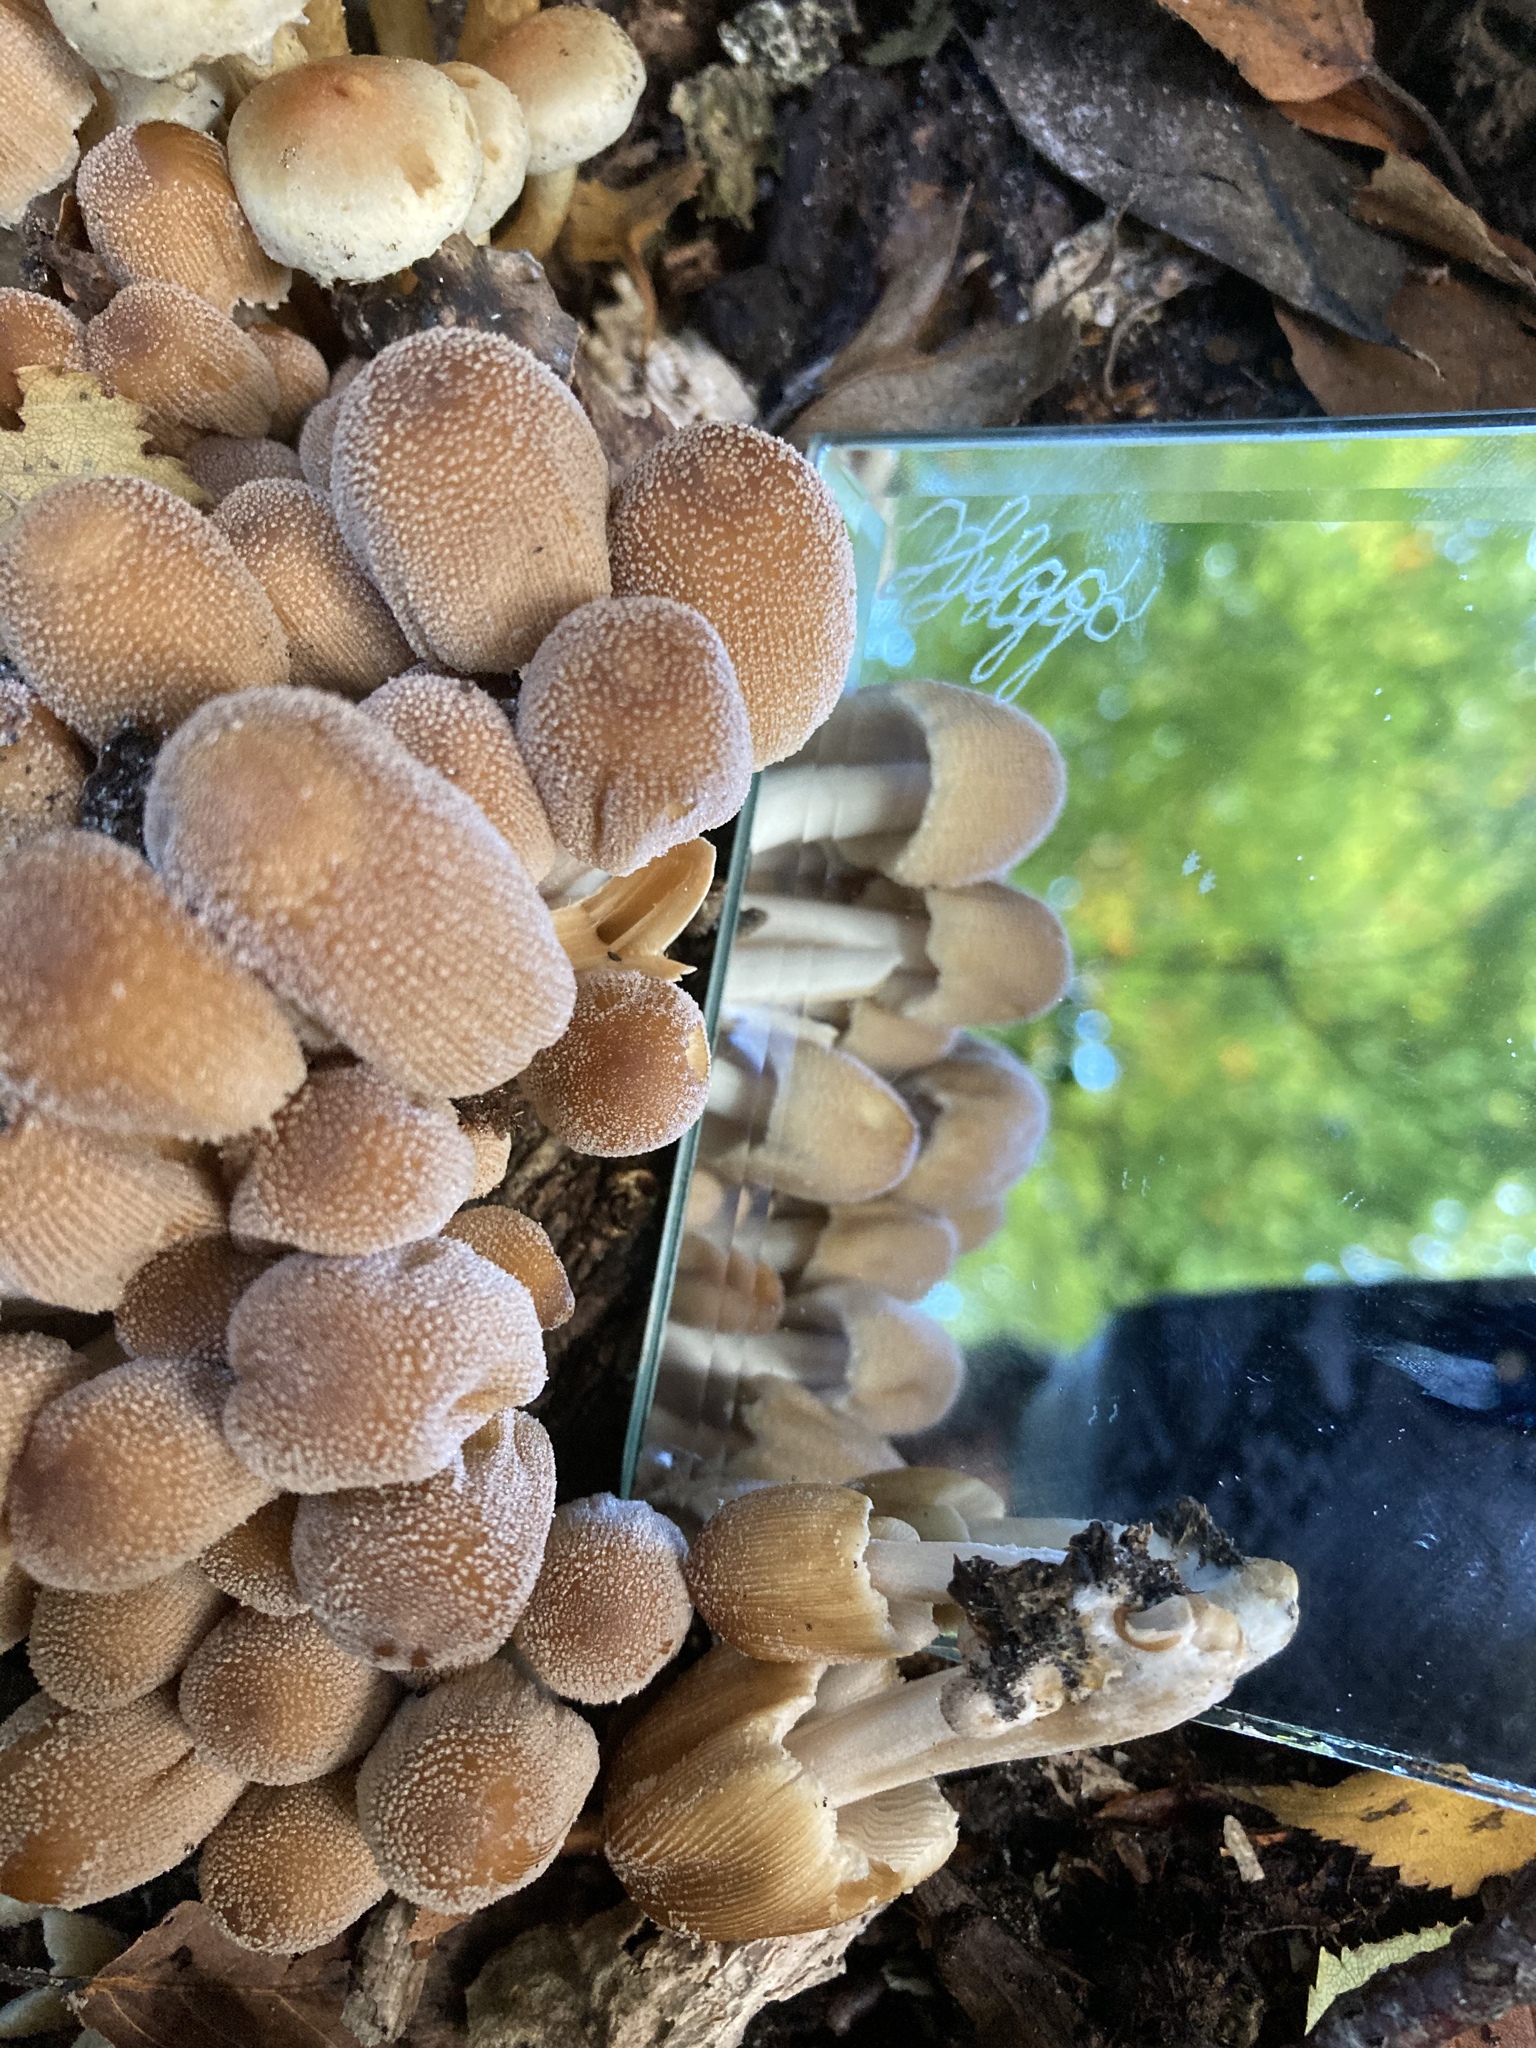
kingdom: Fungi
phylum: Basidiomycota
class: Agaricomycetes
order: Agaricales
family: Psathyrellaceae
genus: Coprinellus
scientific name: Coprinellus micaceus
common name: Glistening ink-cap
